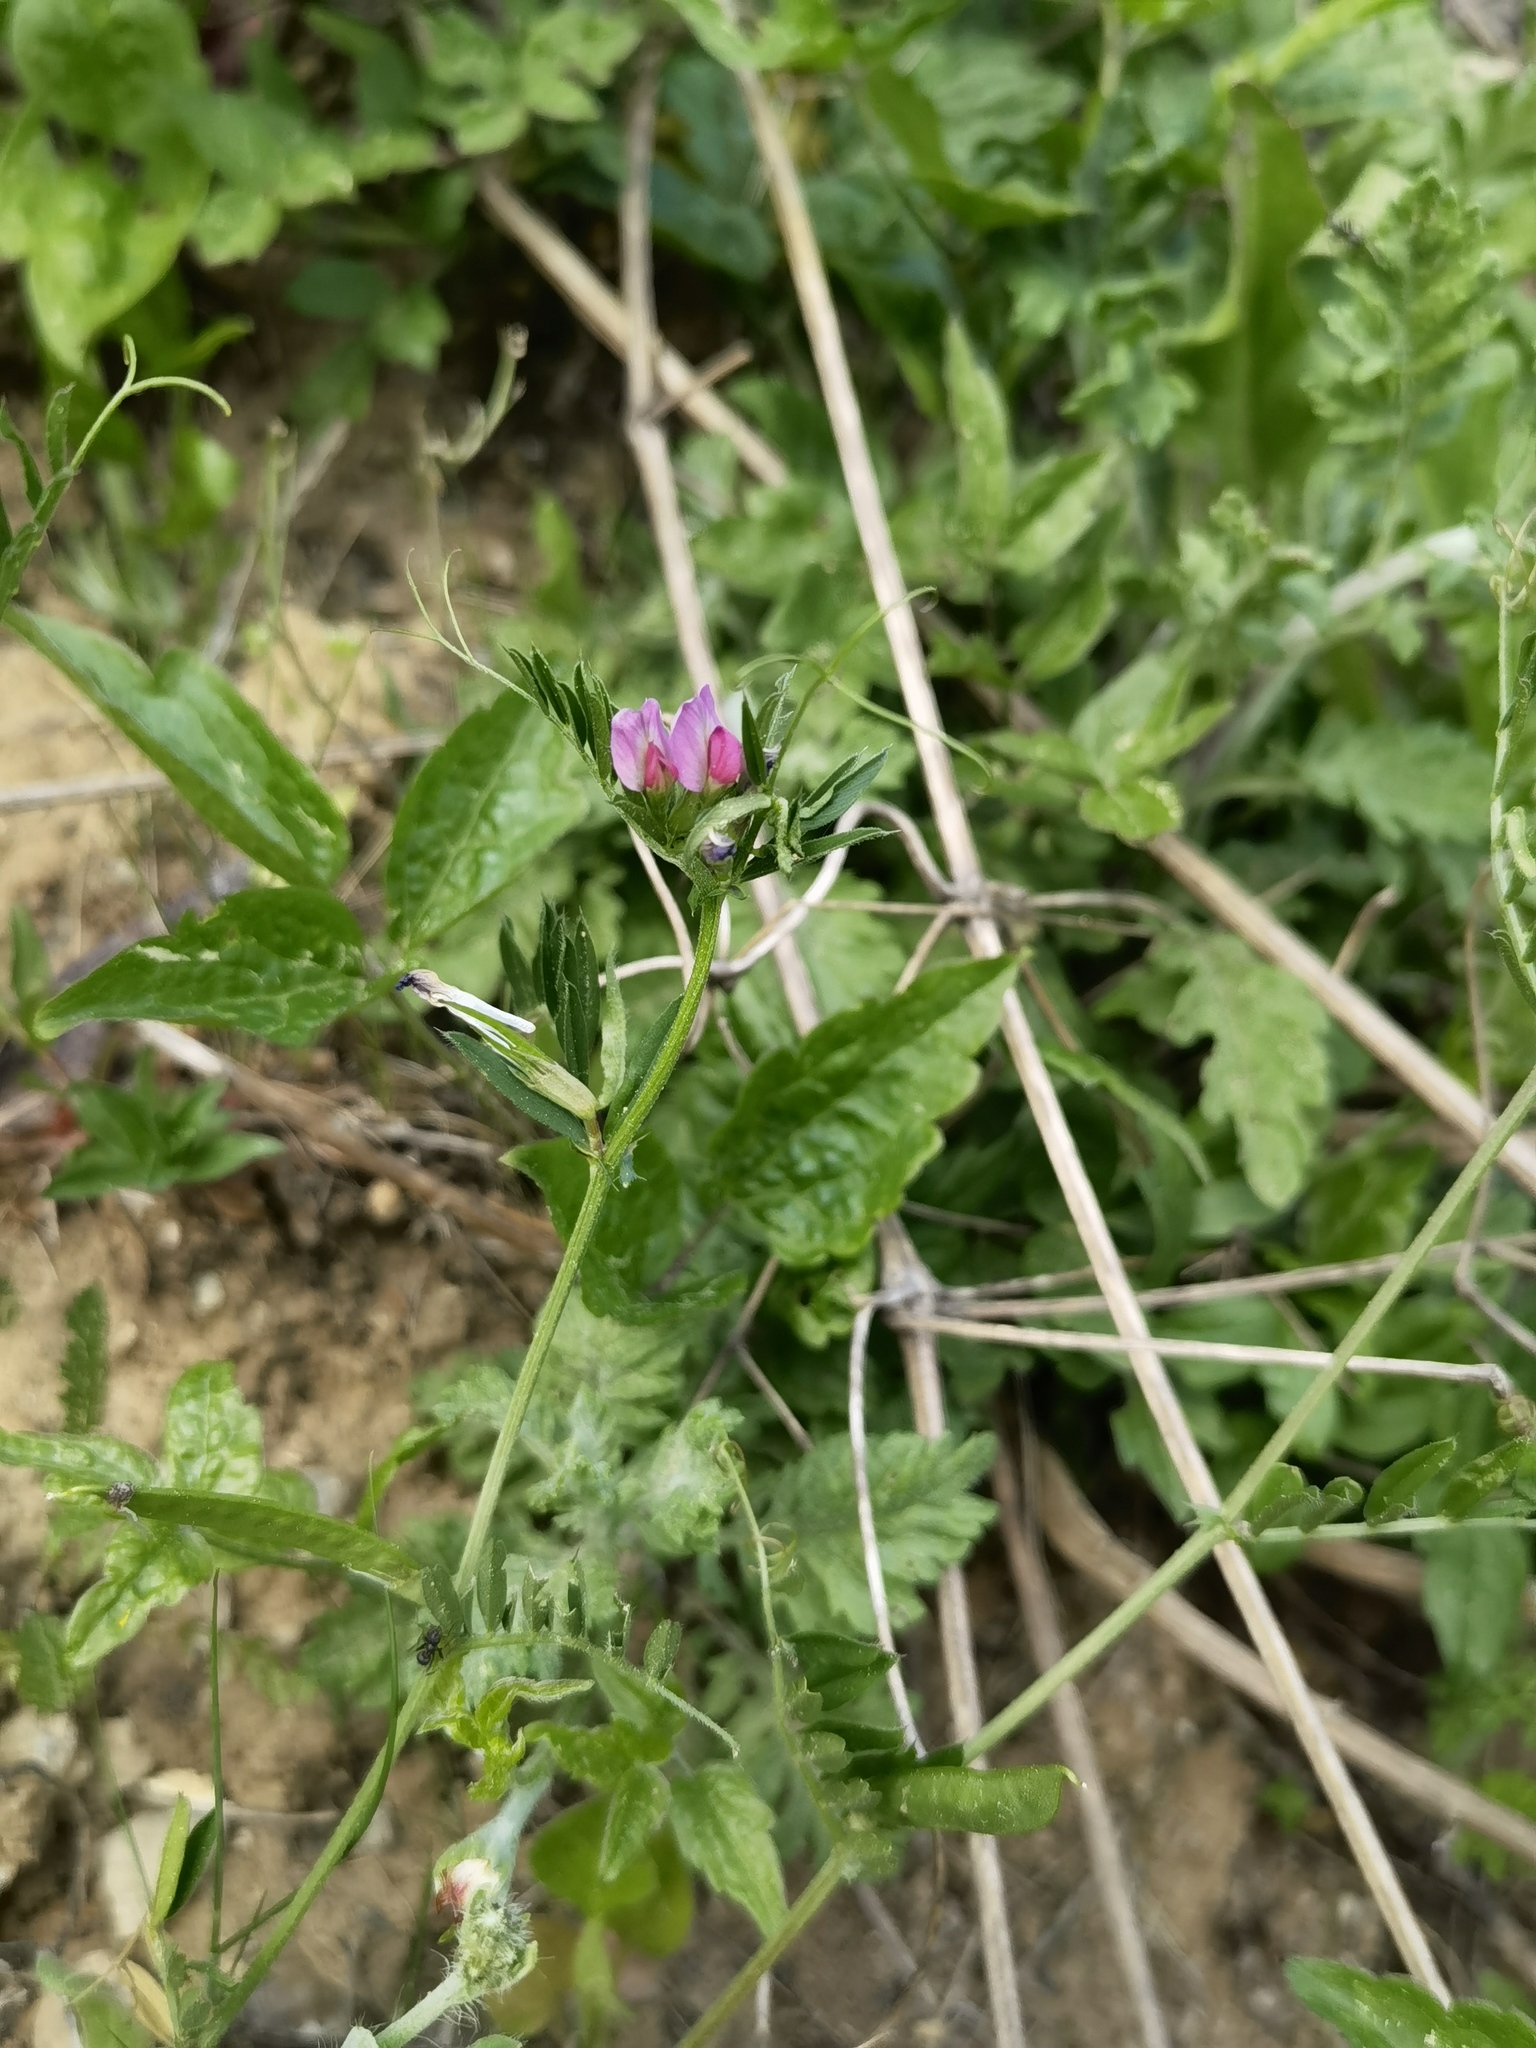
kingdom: Plantae
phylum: Tracheophyta
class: Magnoliopsida
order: Fabales
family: Fabaceae
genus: Vicia
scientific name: Vicia sativa
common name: Garden vetch
